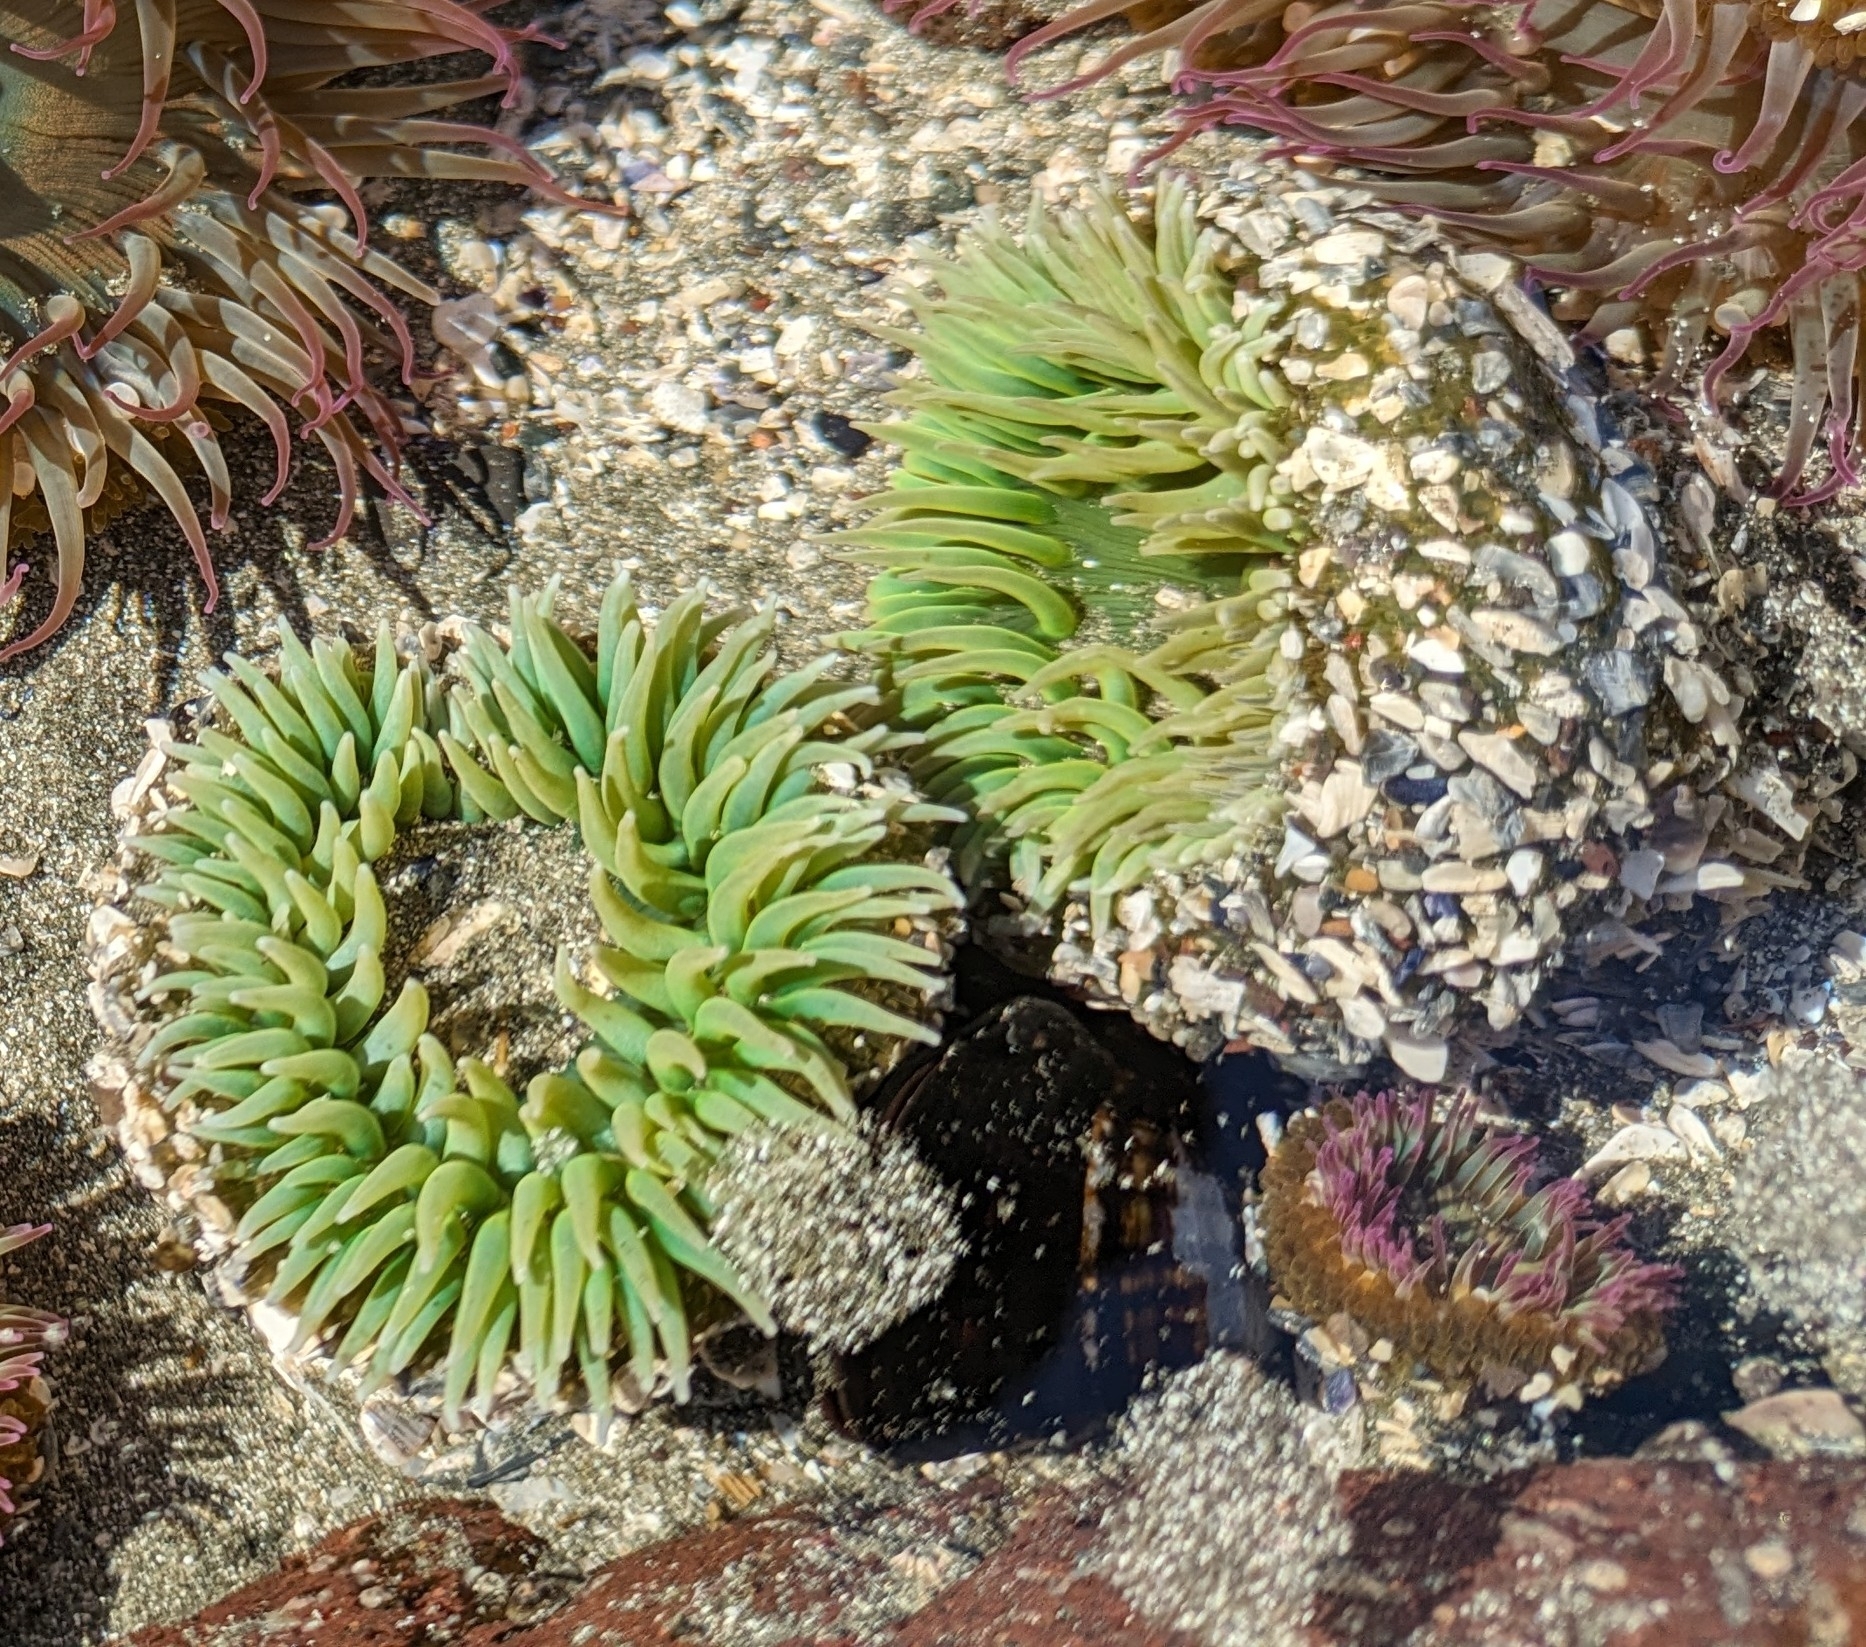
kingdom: Animalia
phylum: Cnidaria
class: Anthozoa
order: Actiniaria
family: Actiniidae
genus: Anthopleura
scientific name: Anthopleura xanthogrammica
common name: Giant green anemone
